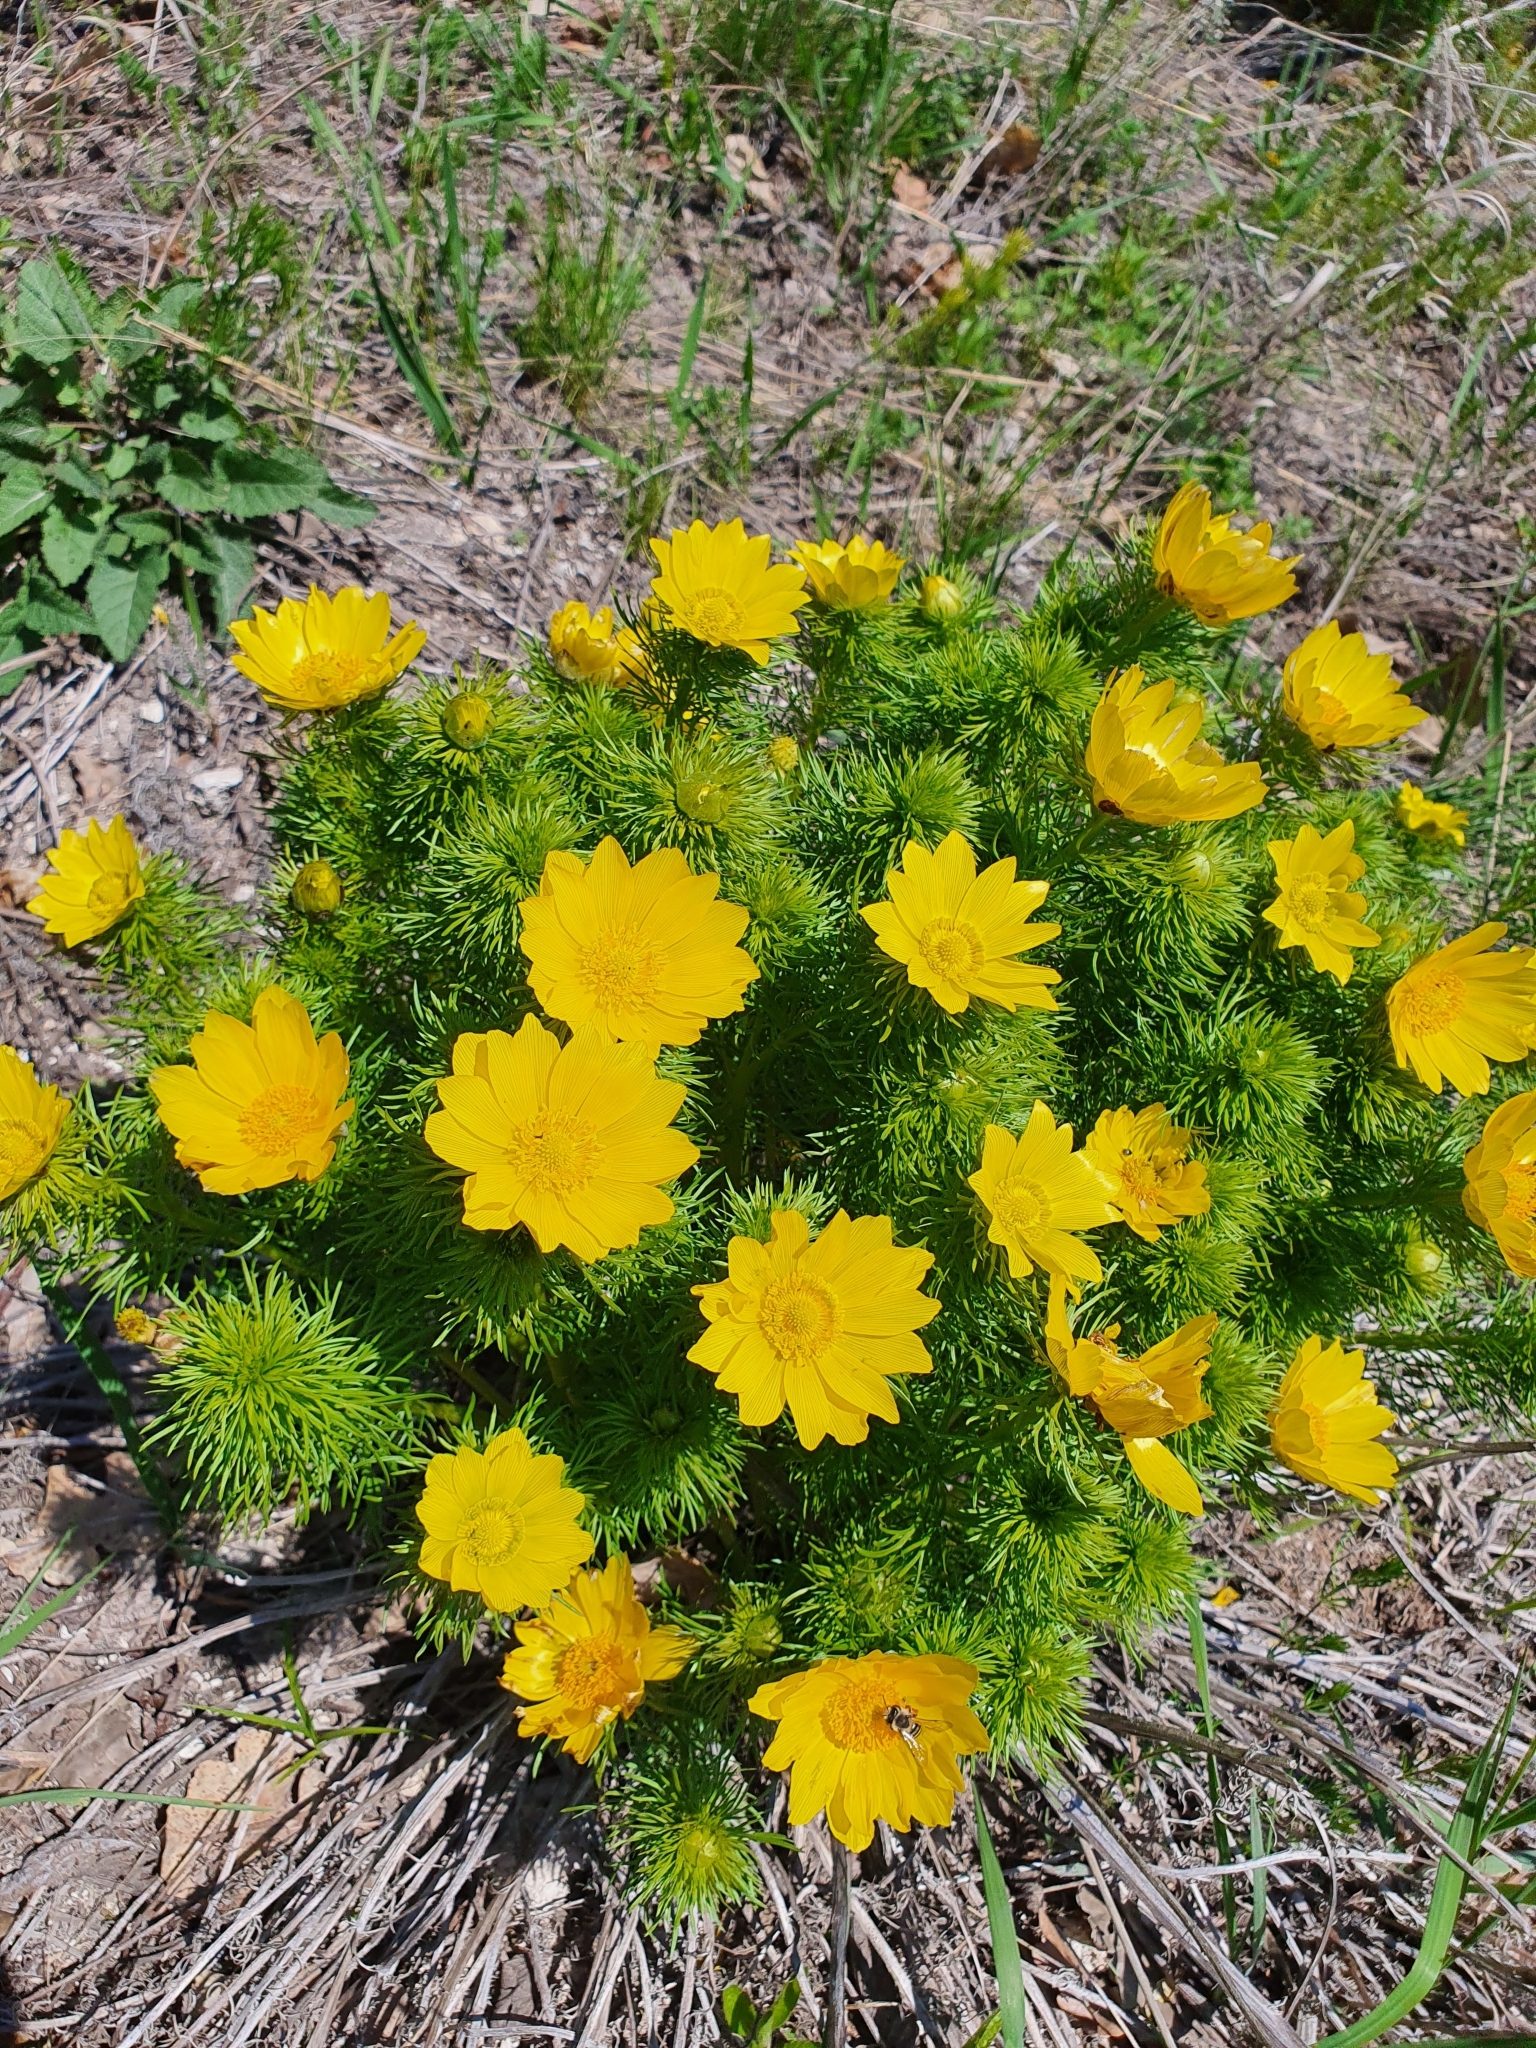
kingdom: Plantae
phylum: Tracheophyta
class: Magnoliopsida
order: Ranunculales
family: Ranunculaceae
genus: Adonis
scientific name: Adonis vernalis
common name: Yellow pheasants-eye
